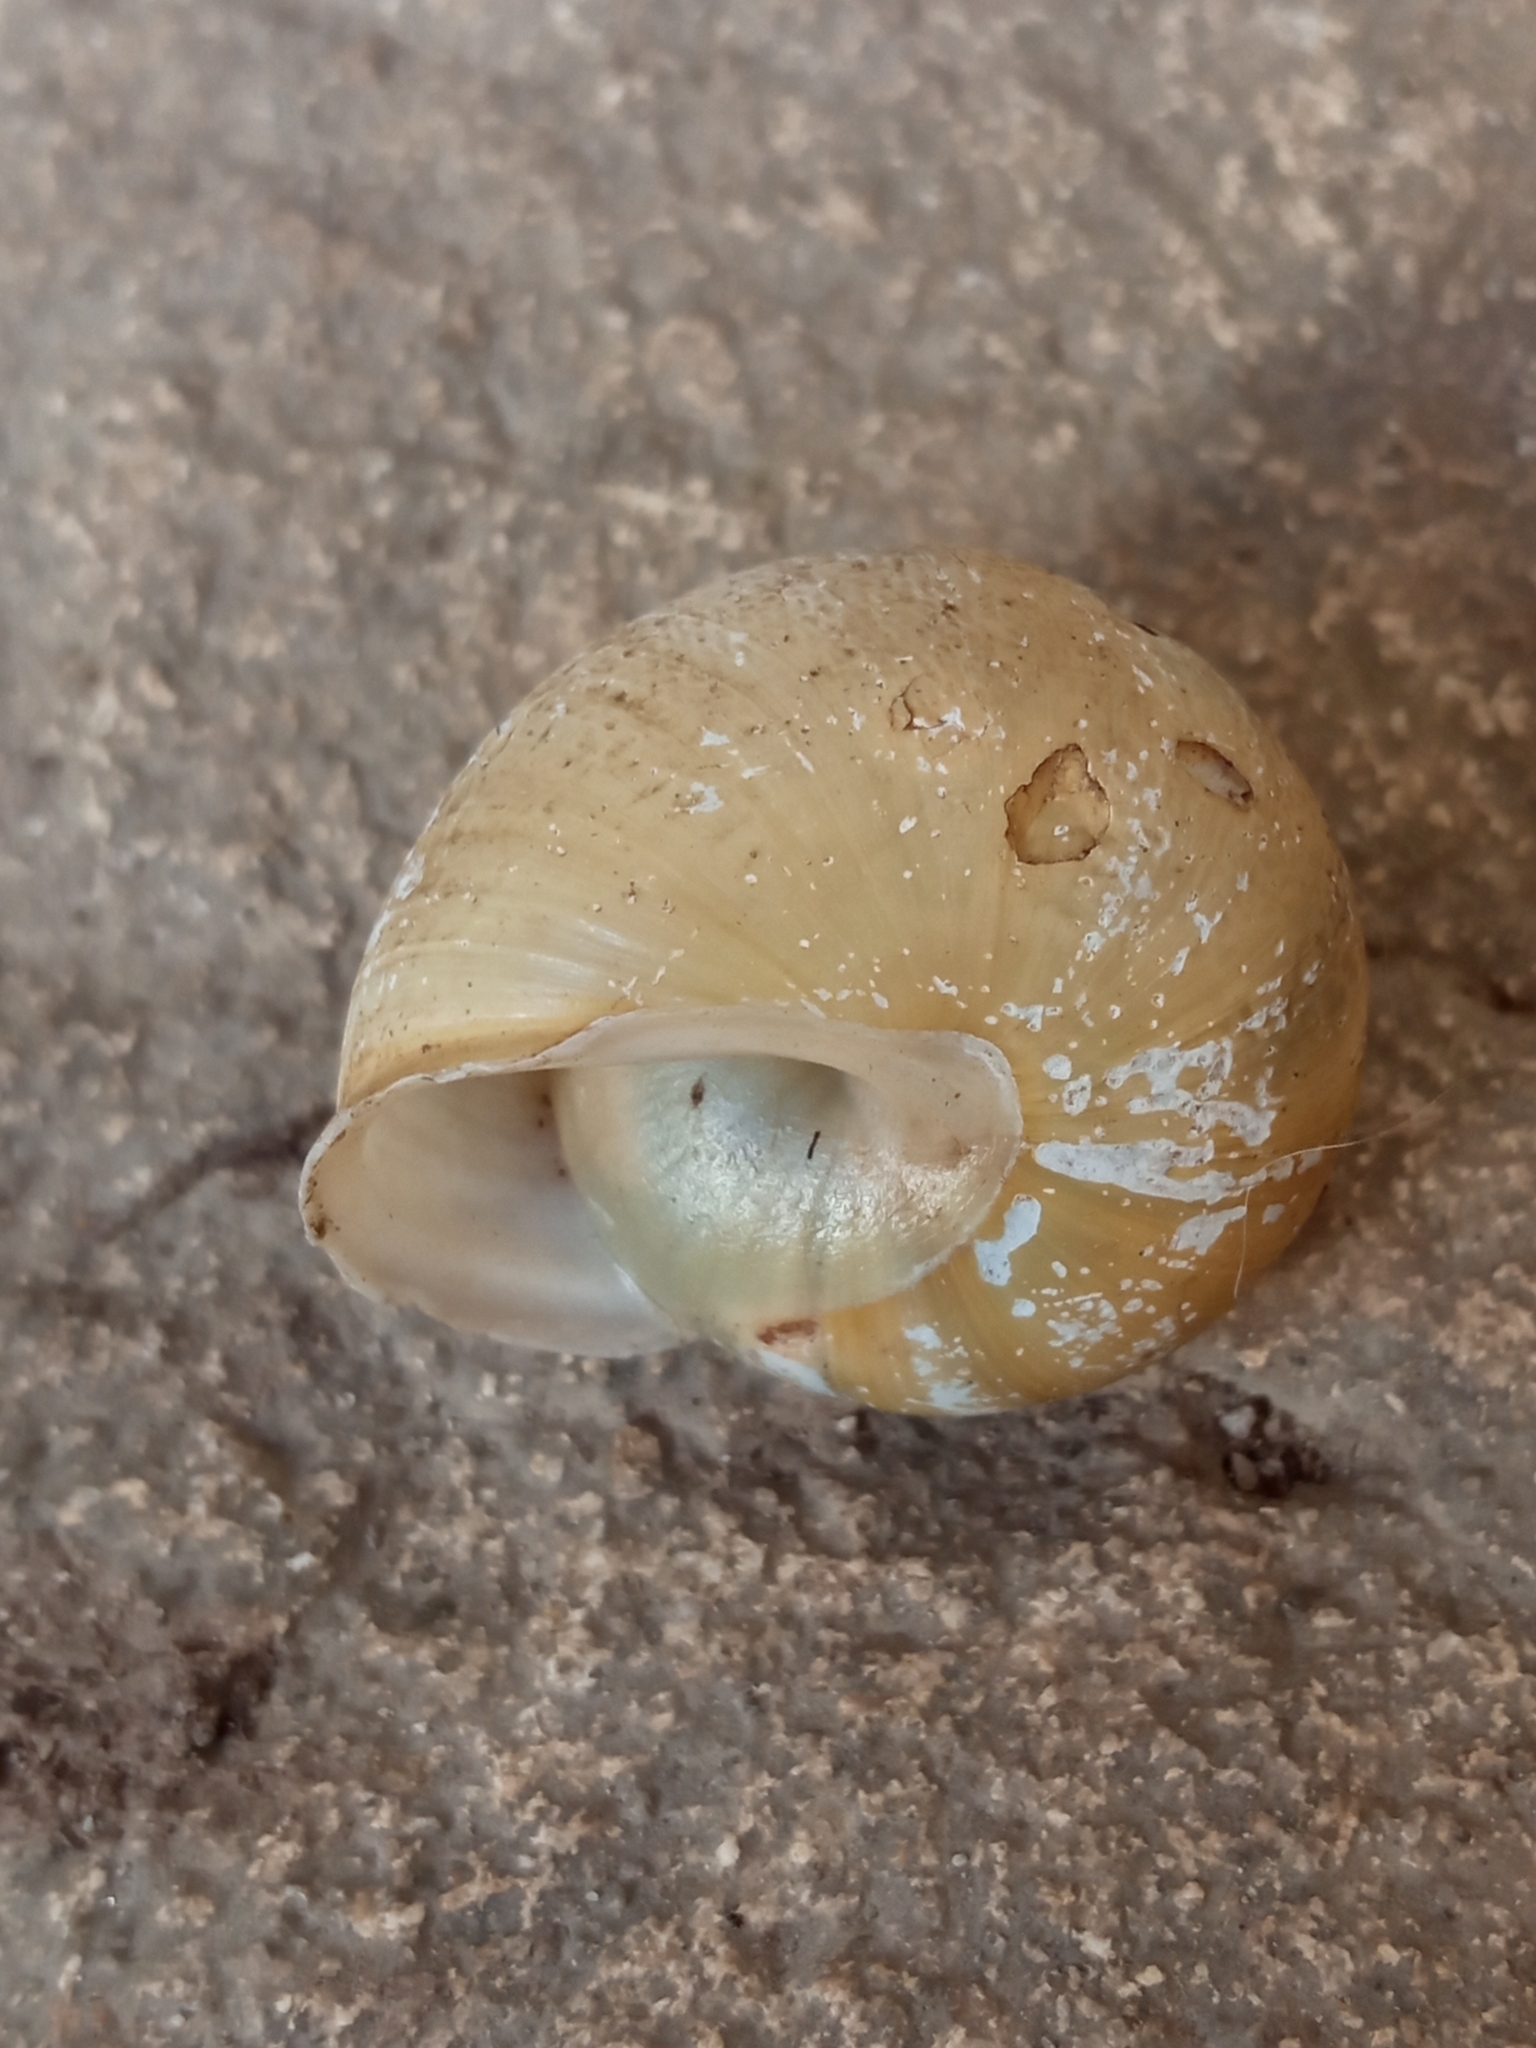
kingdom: Animalia
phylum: Mollusca
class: Gastropoda
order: Stylommatophora
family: Helicidae
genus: Cepaea
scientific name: Cepaea hortensis
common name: White-lip gardensnail
